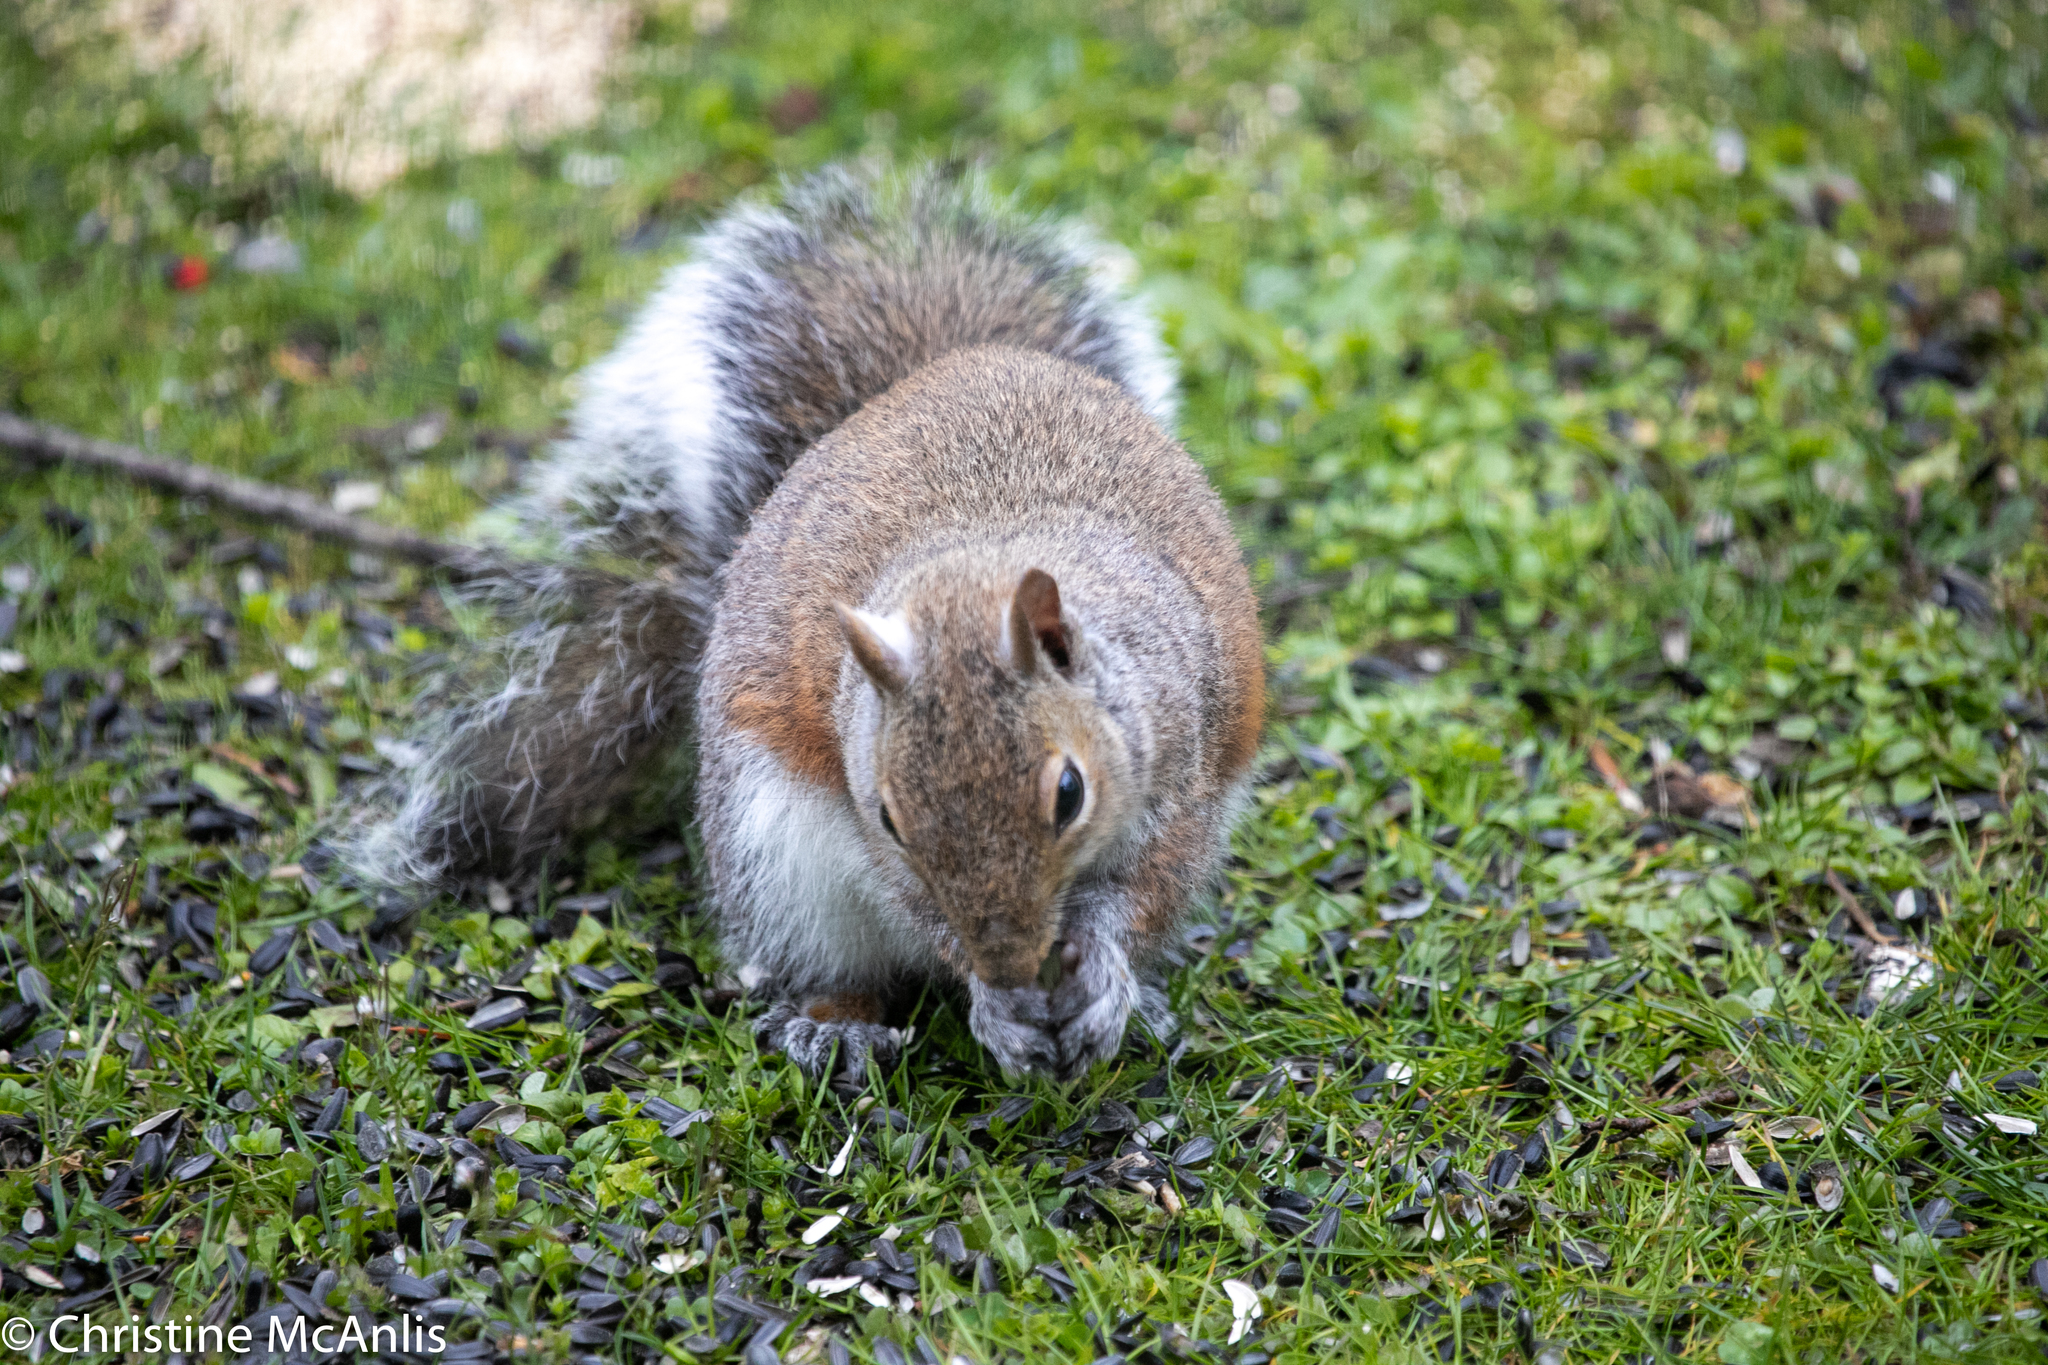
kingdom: Animalia
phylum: Chordata
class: Mammalia
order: Rodentia
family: Sciuridae
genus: Sciurus
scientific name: Sciurus carolinensis
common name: Eastern gray squirrel
